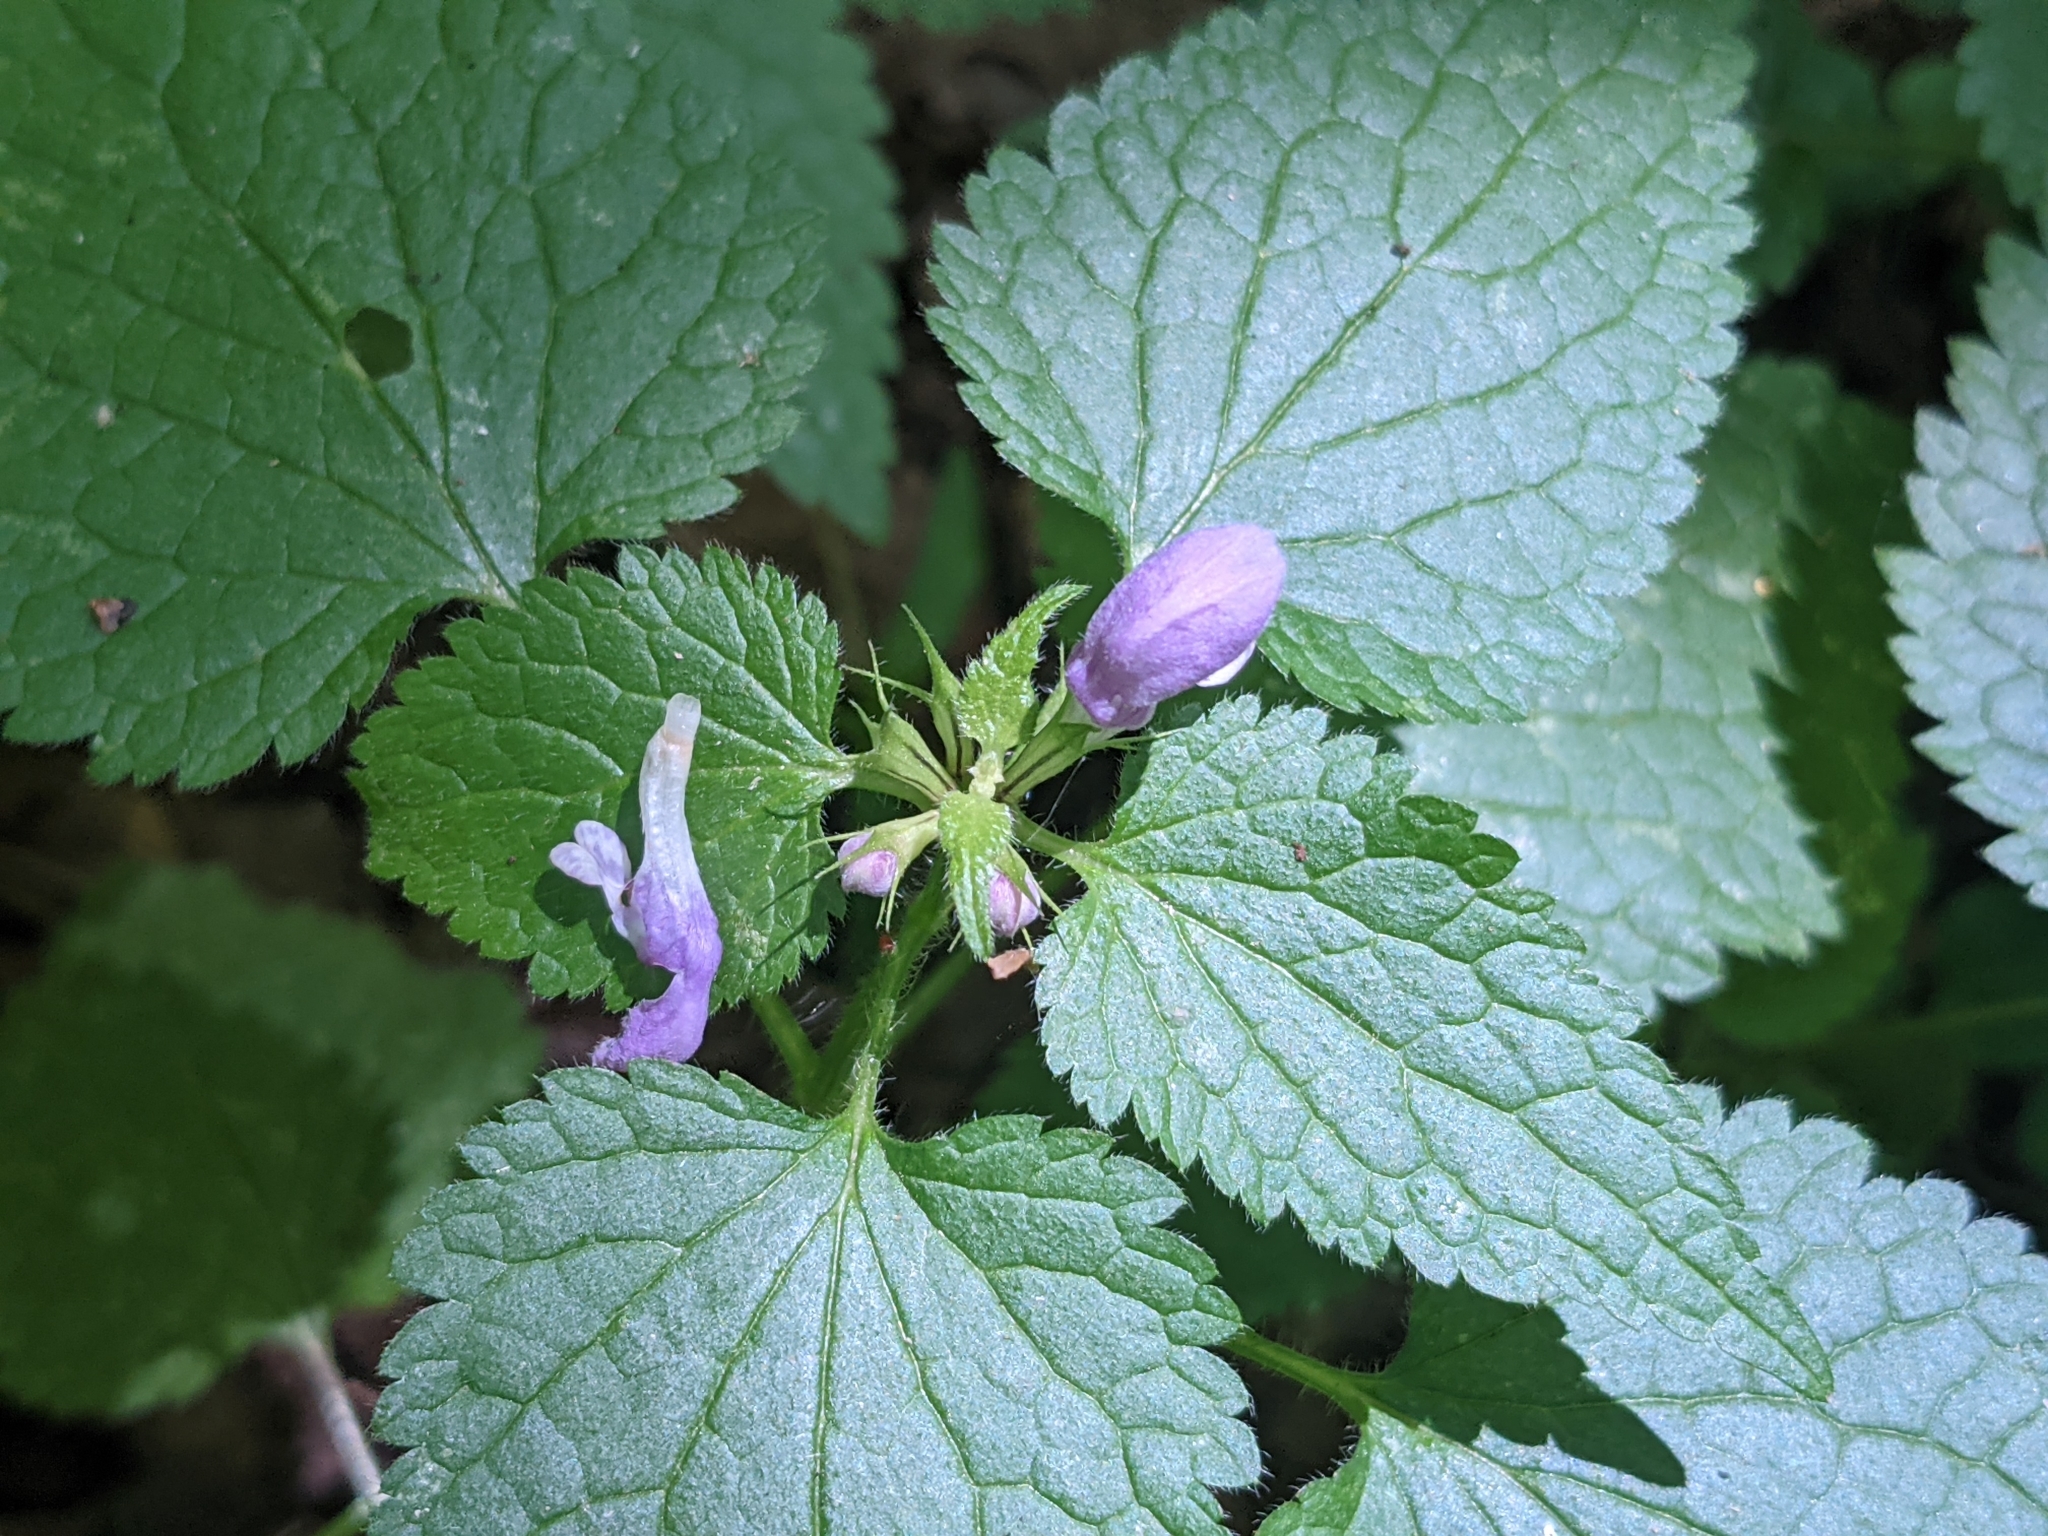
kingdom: Plantae
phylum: Tracheophyta
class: Magnoliopsida
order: Lamiales
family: Lamiaceae
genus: Lamium
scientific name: Lamium maculatum
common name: Spotted dead-nettle
